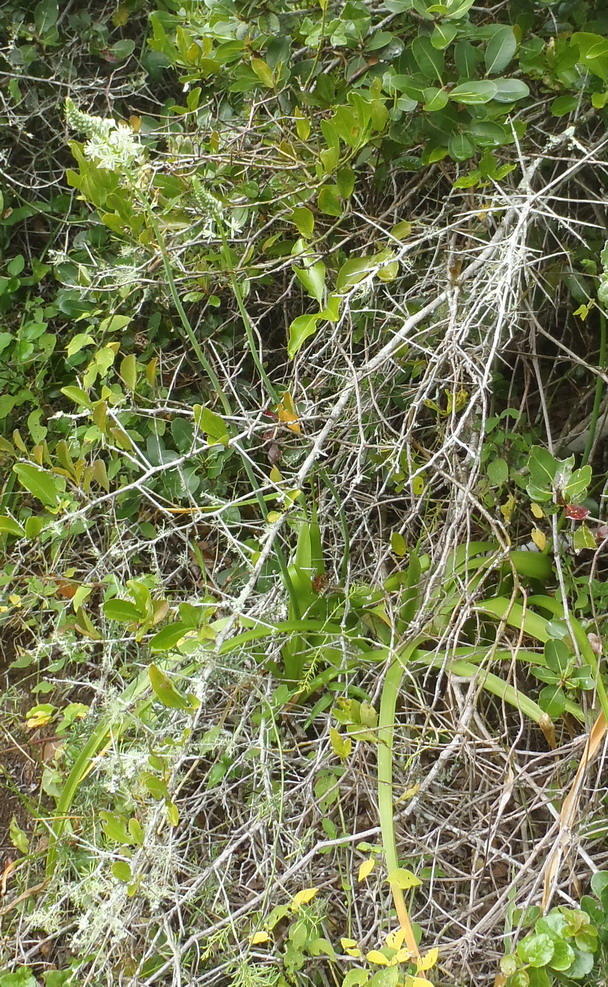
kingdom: Plantae
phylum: Tracheophyta
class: Liliopsida
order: Asparagales
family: Asparagaceae
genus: Albuca
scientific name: Albuca bracteata
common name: Sea-onion
